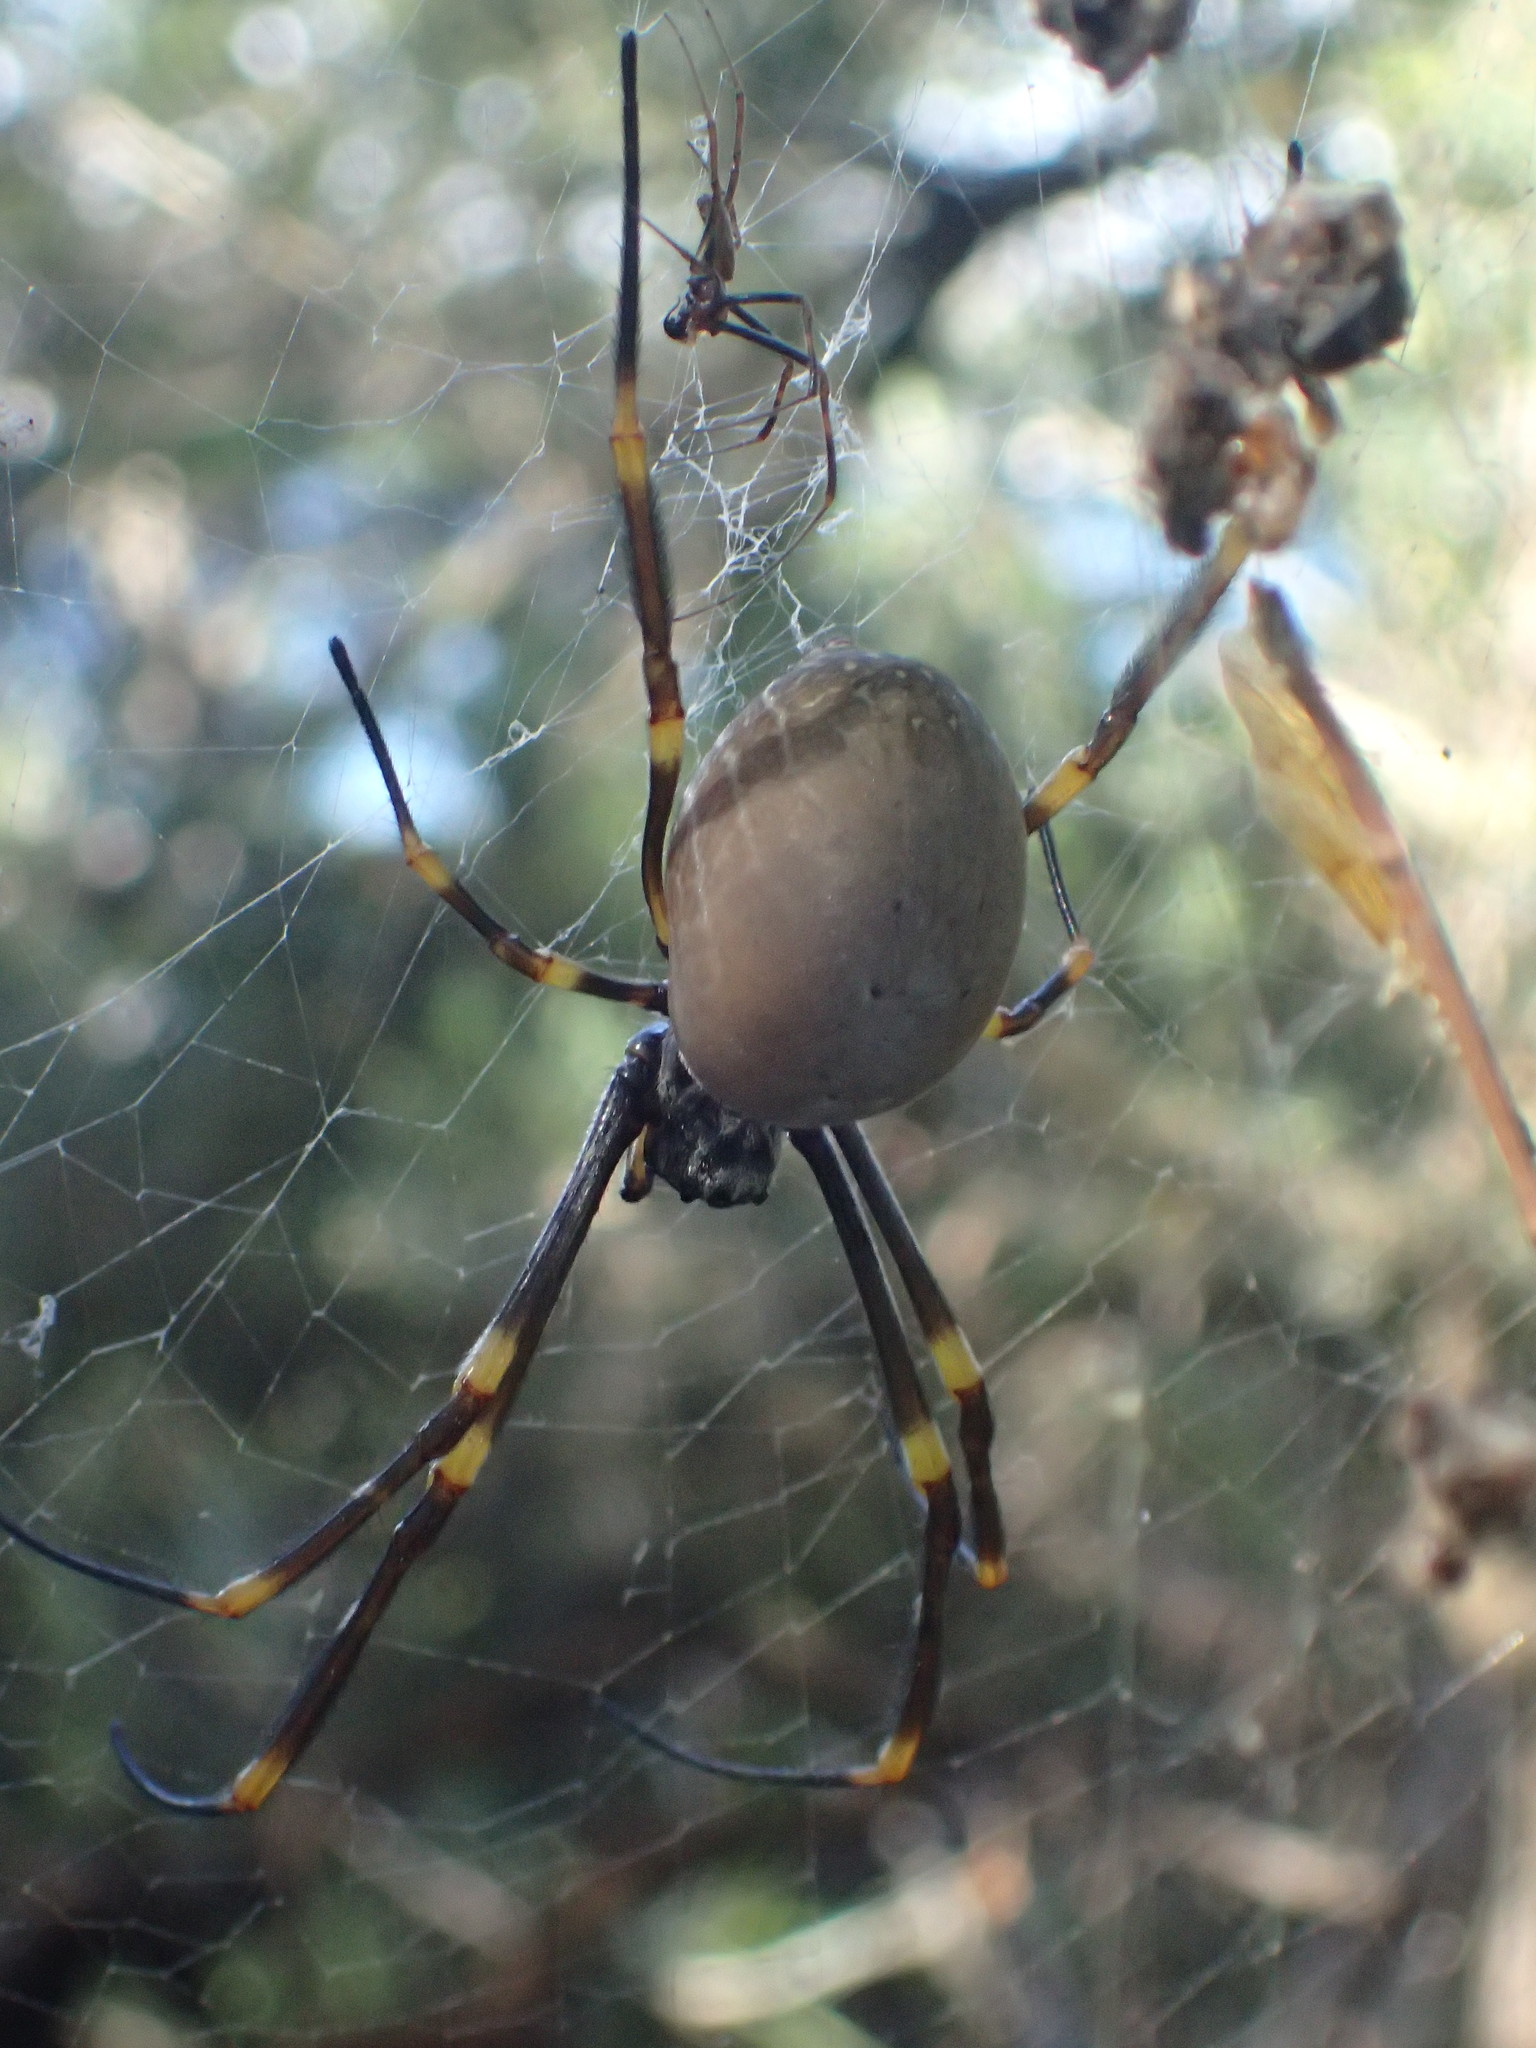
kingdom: Animalia
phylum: Arthropoda
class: Arachnida
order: Araneae
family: Araneidae
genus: Trichonephila
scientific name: Trichonephila plumipes
